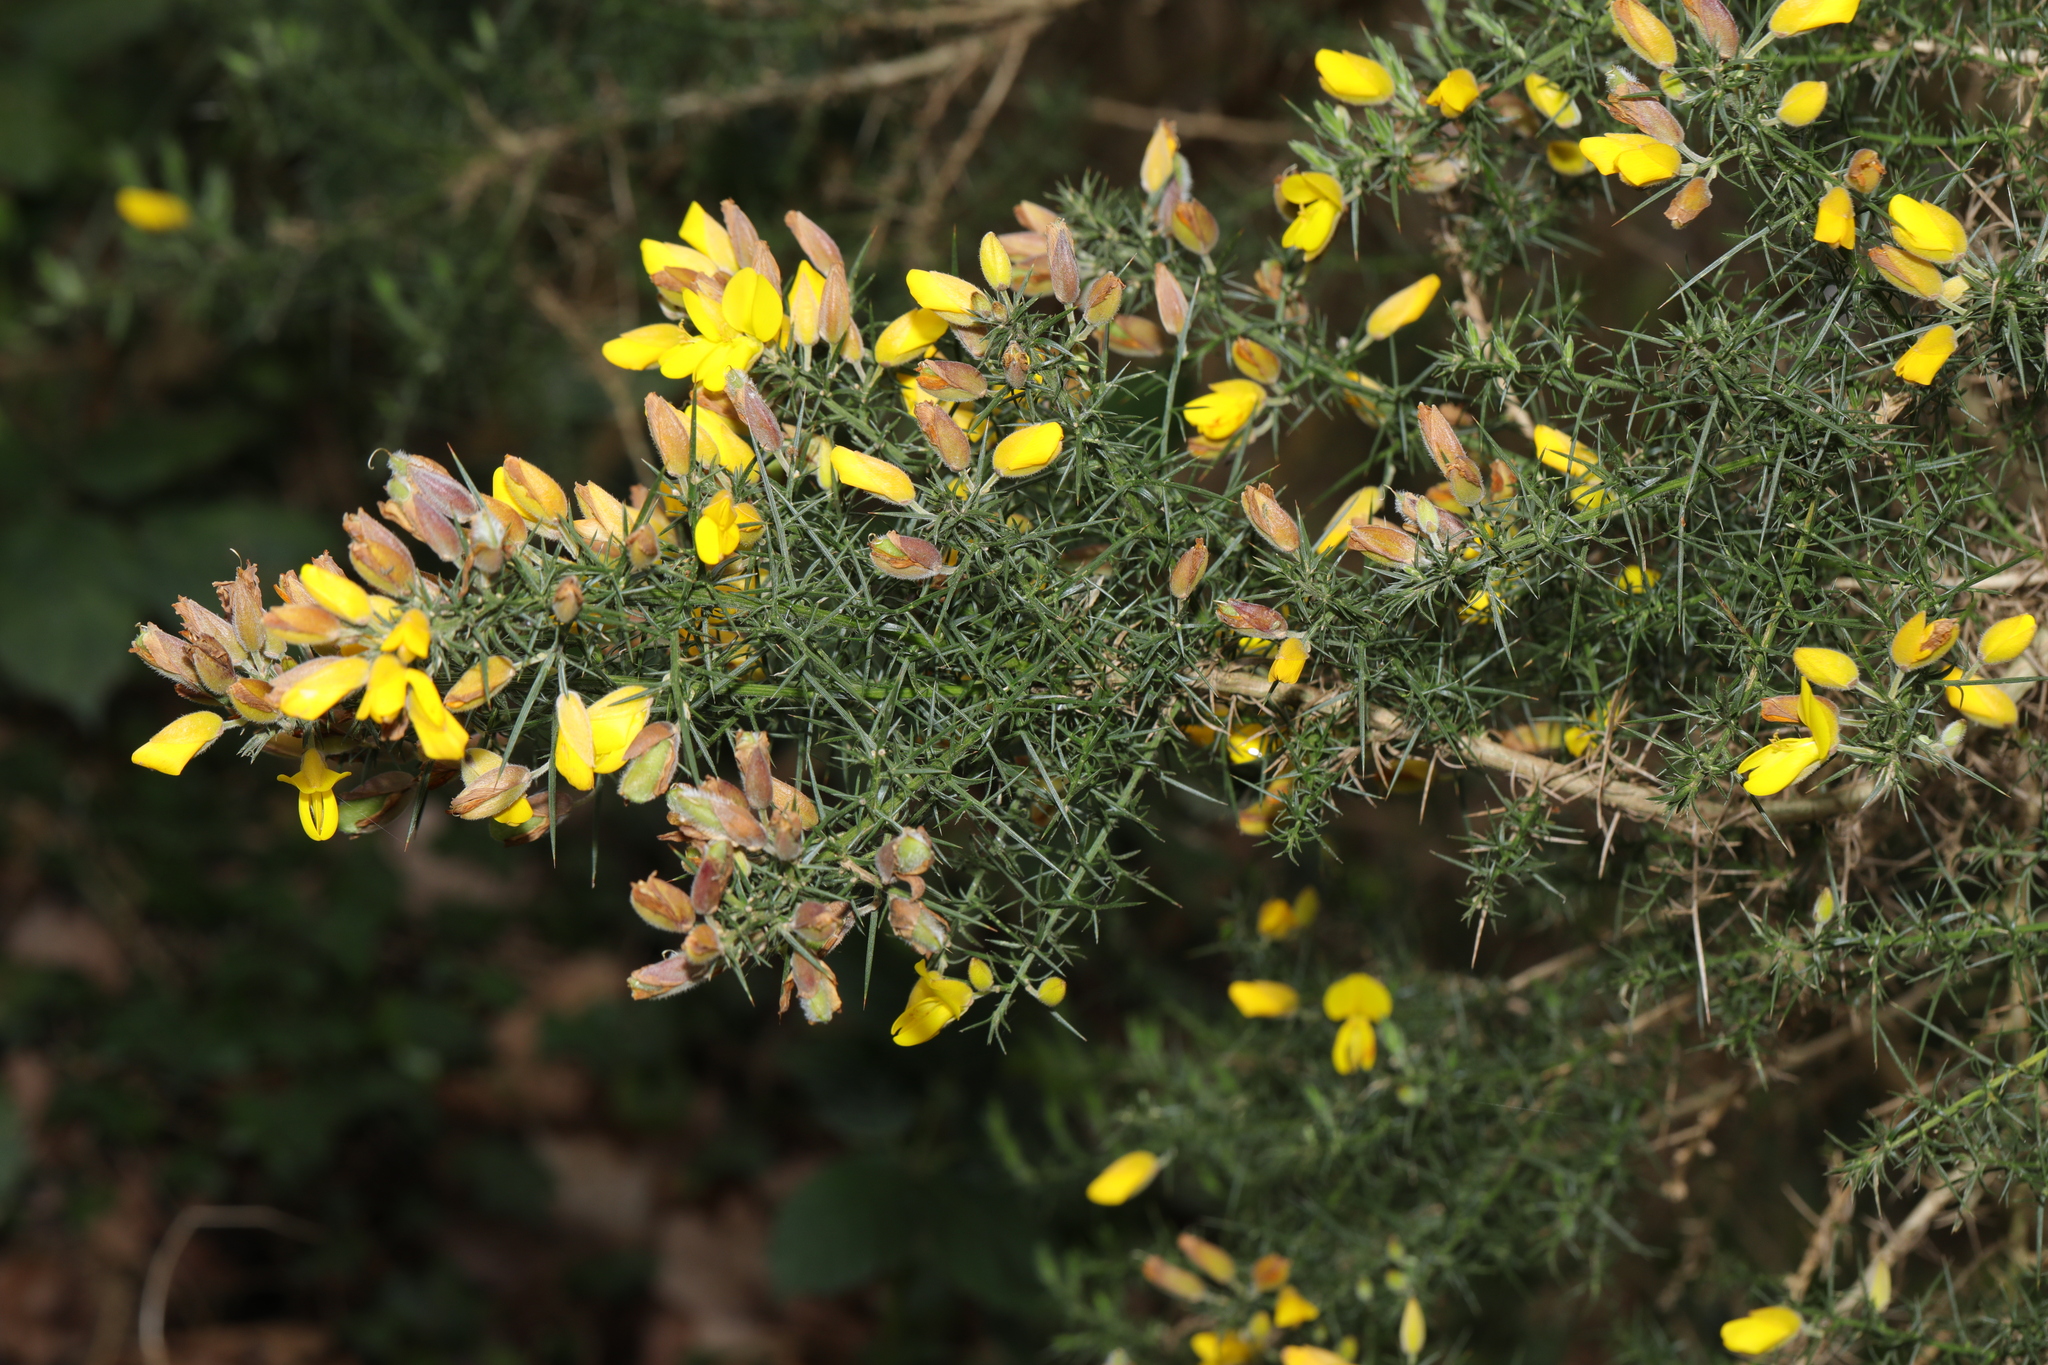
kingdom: Plantae
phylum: Tracheophyta
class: Magnoliopsida
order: Fabales
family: Fabaceae
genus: Ulex
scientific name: Ulex europaeus
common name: Common gorse
